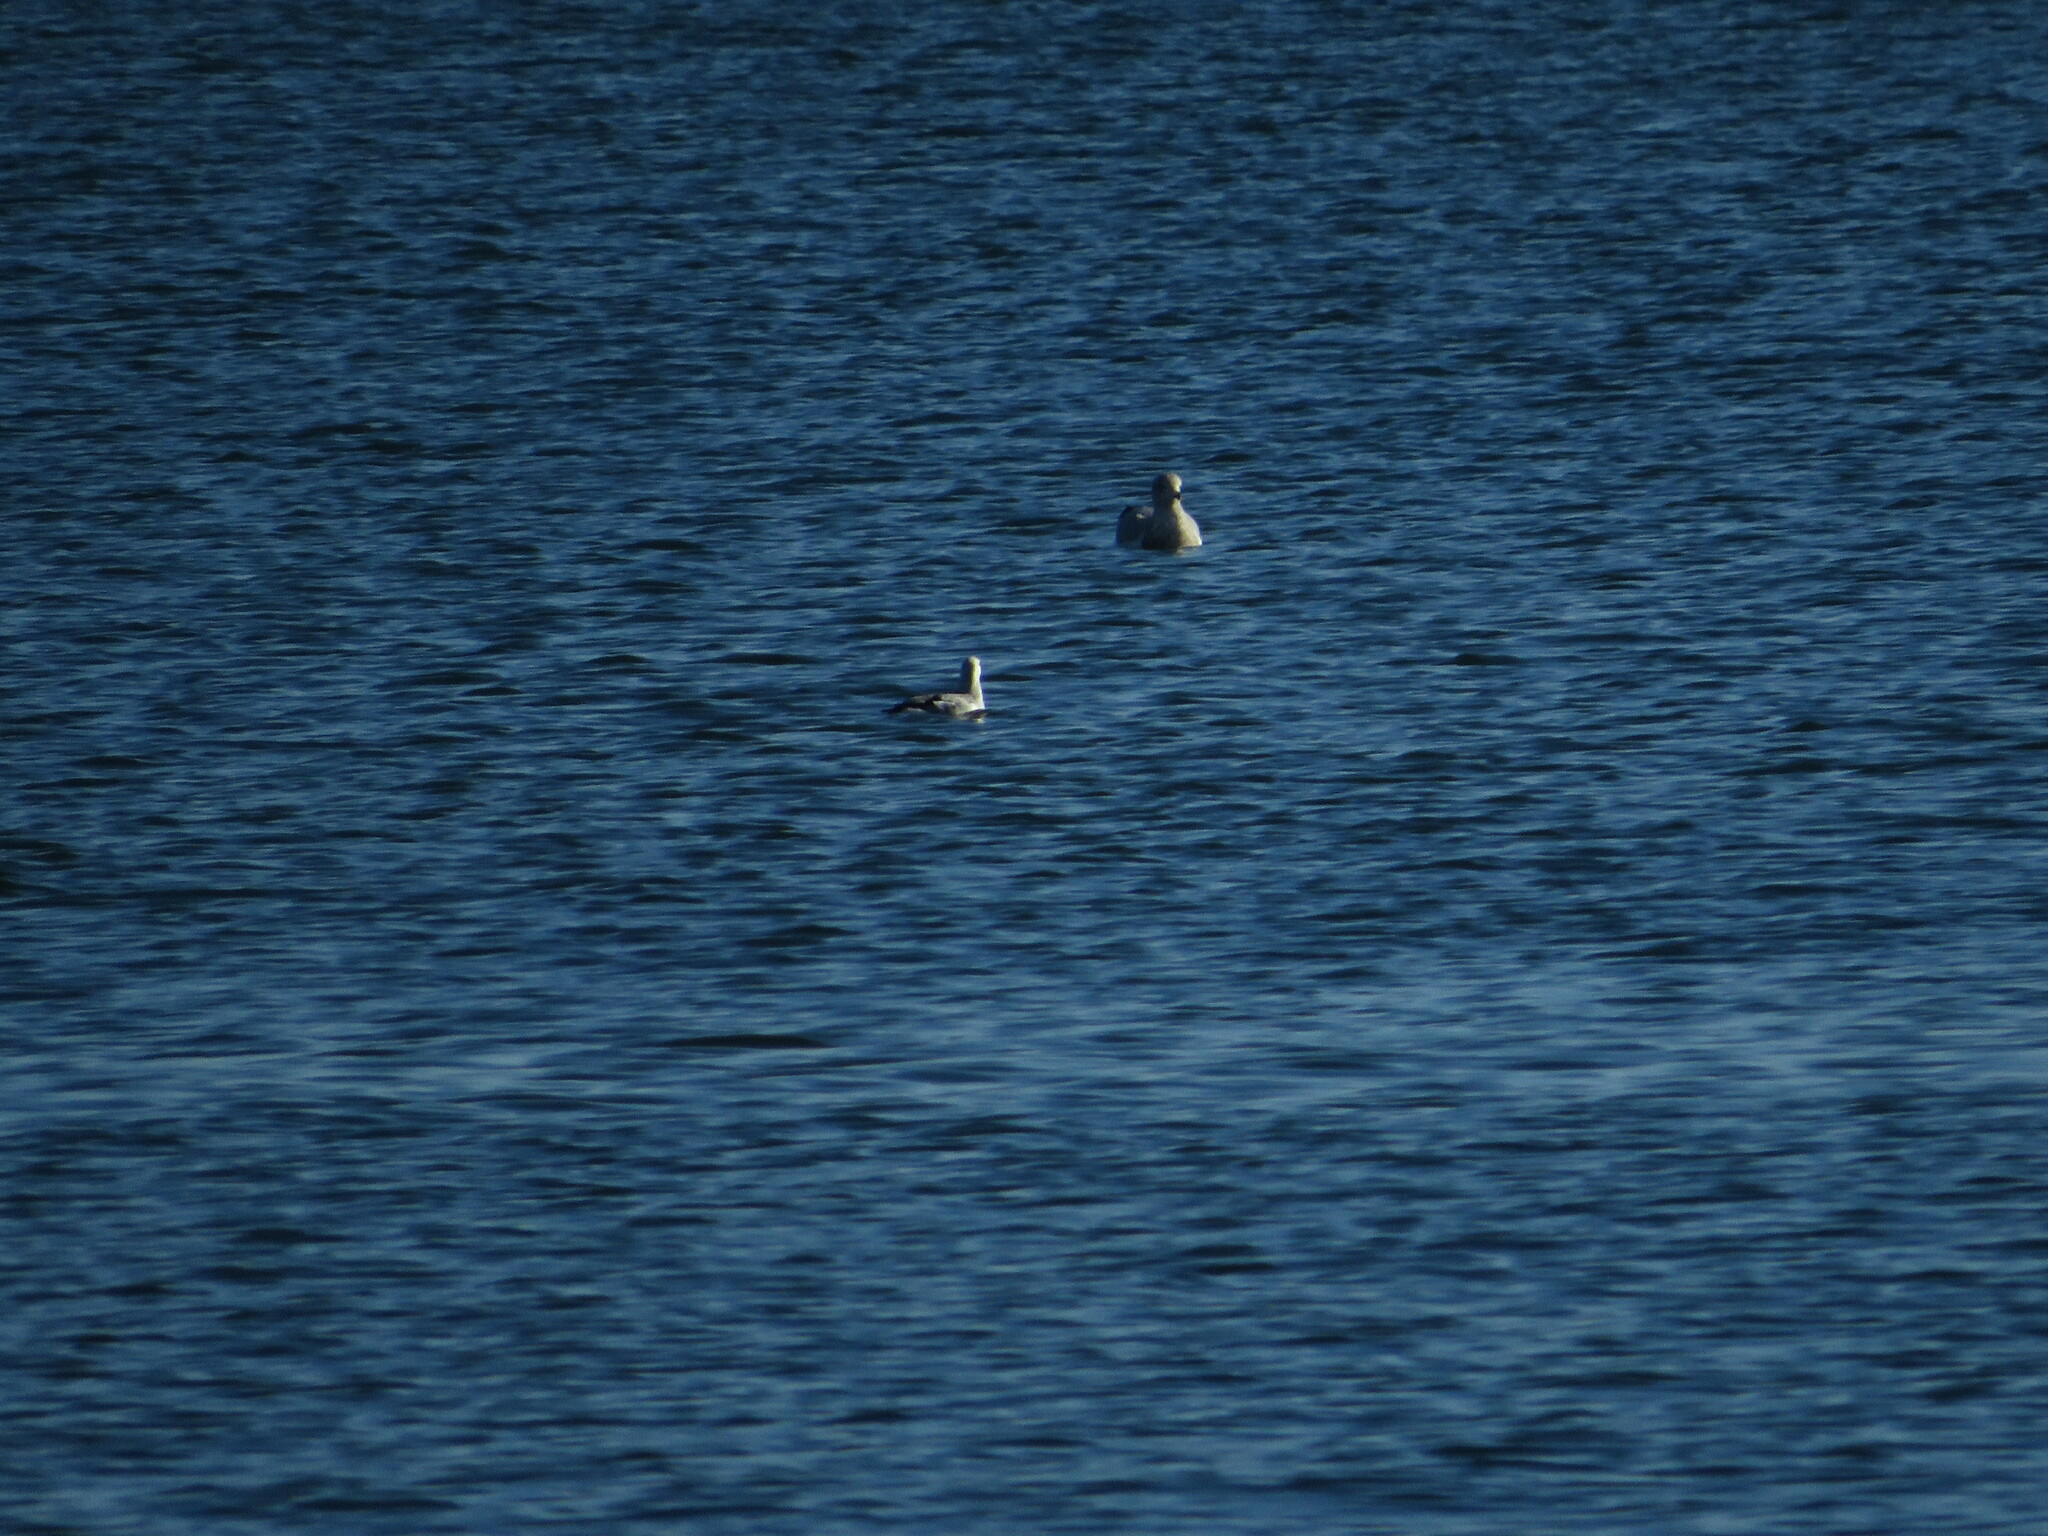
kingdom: Animalia
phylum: Chordata
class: Aves
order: Charadriiformes
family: Alcidae
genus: Cepphus
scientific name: Cepphus grylle
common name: Black guillemot
